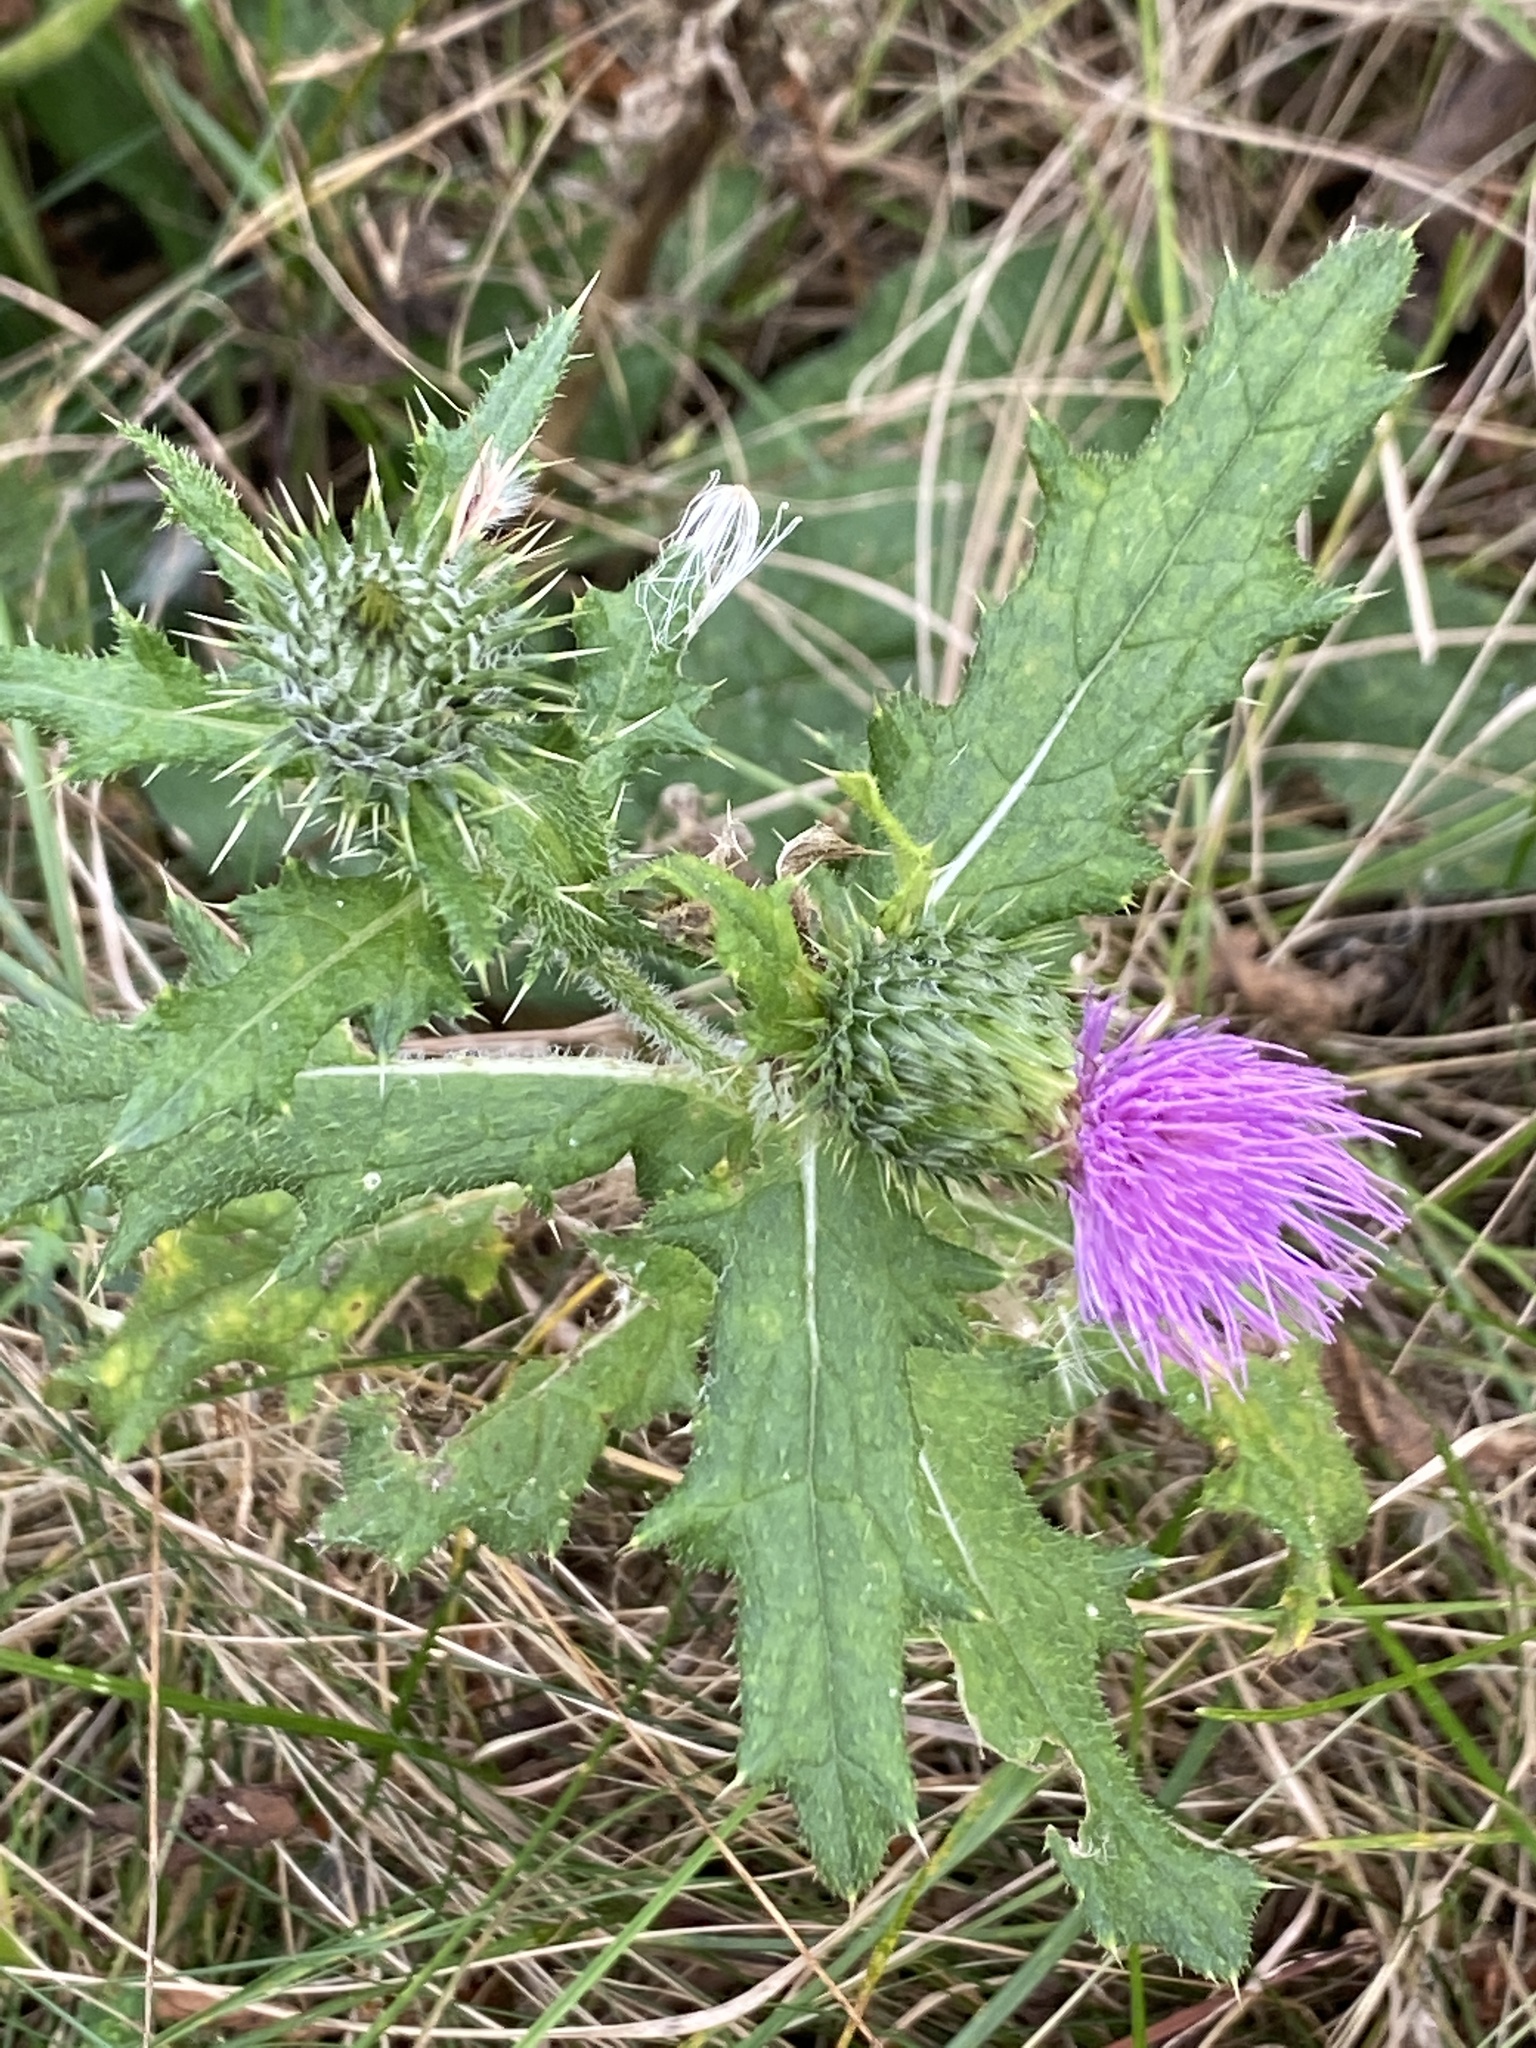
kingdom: Plantae
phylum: Tracheophyta
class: Magnoliopsida
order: Asterales
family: Asteraceae
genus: Cirsium
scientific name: Cirsium vulgare
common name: Bull thistle
